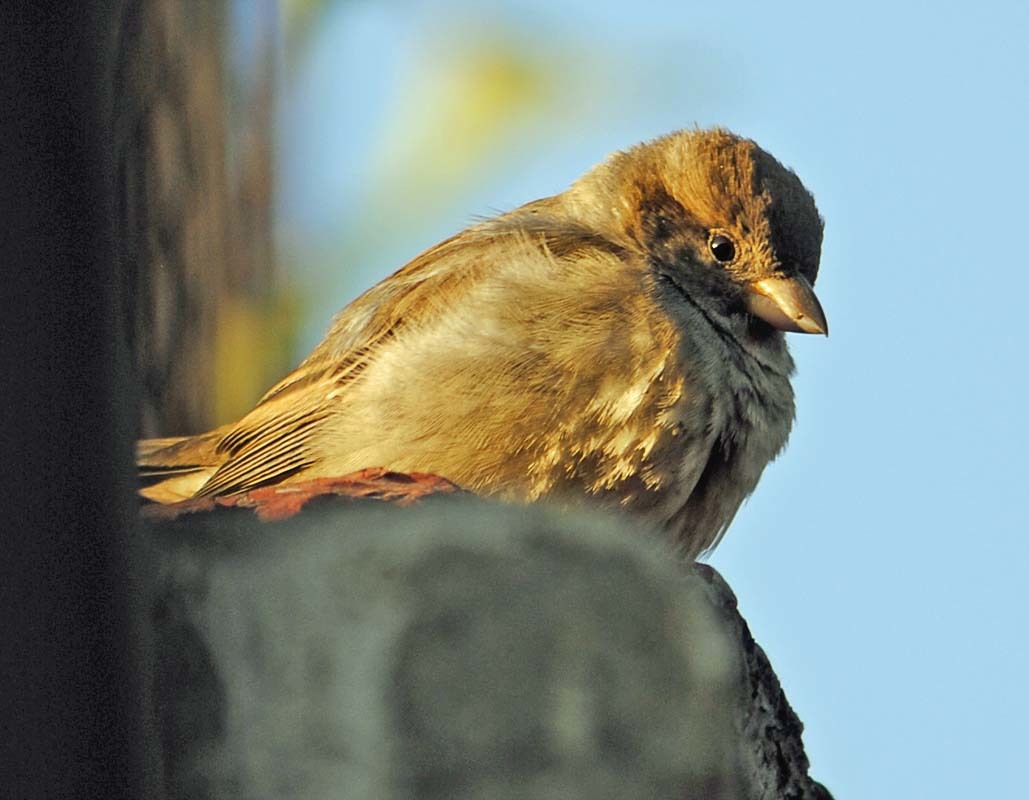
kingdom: Animalia
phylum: Chordata
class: Aves
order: Passeriformes
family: Passeridae
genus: Passer
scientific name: Passer domesticus
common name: House sparrow
